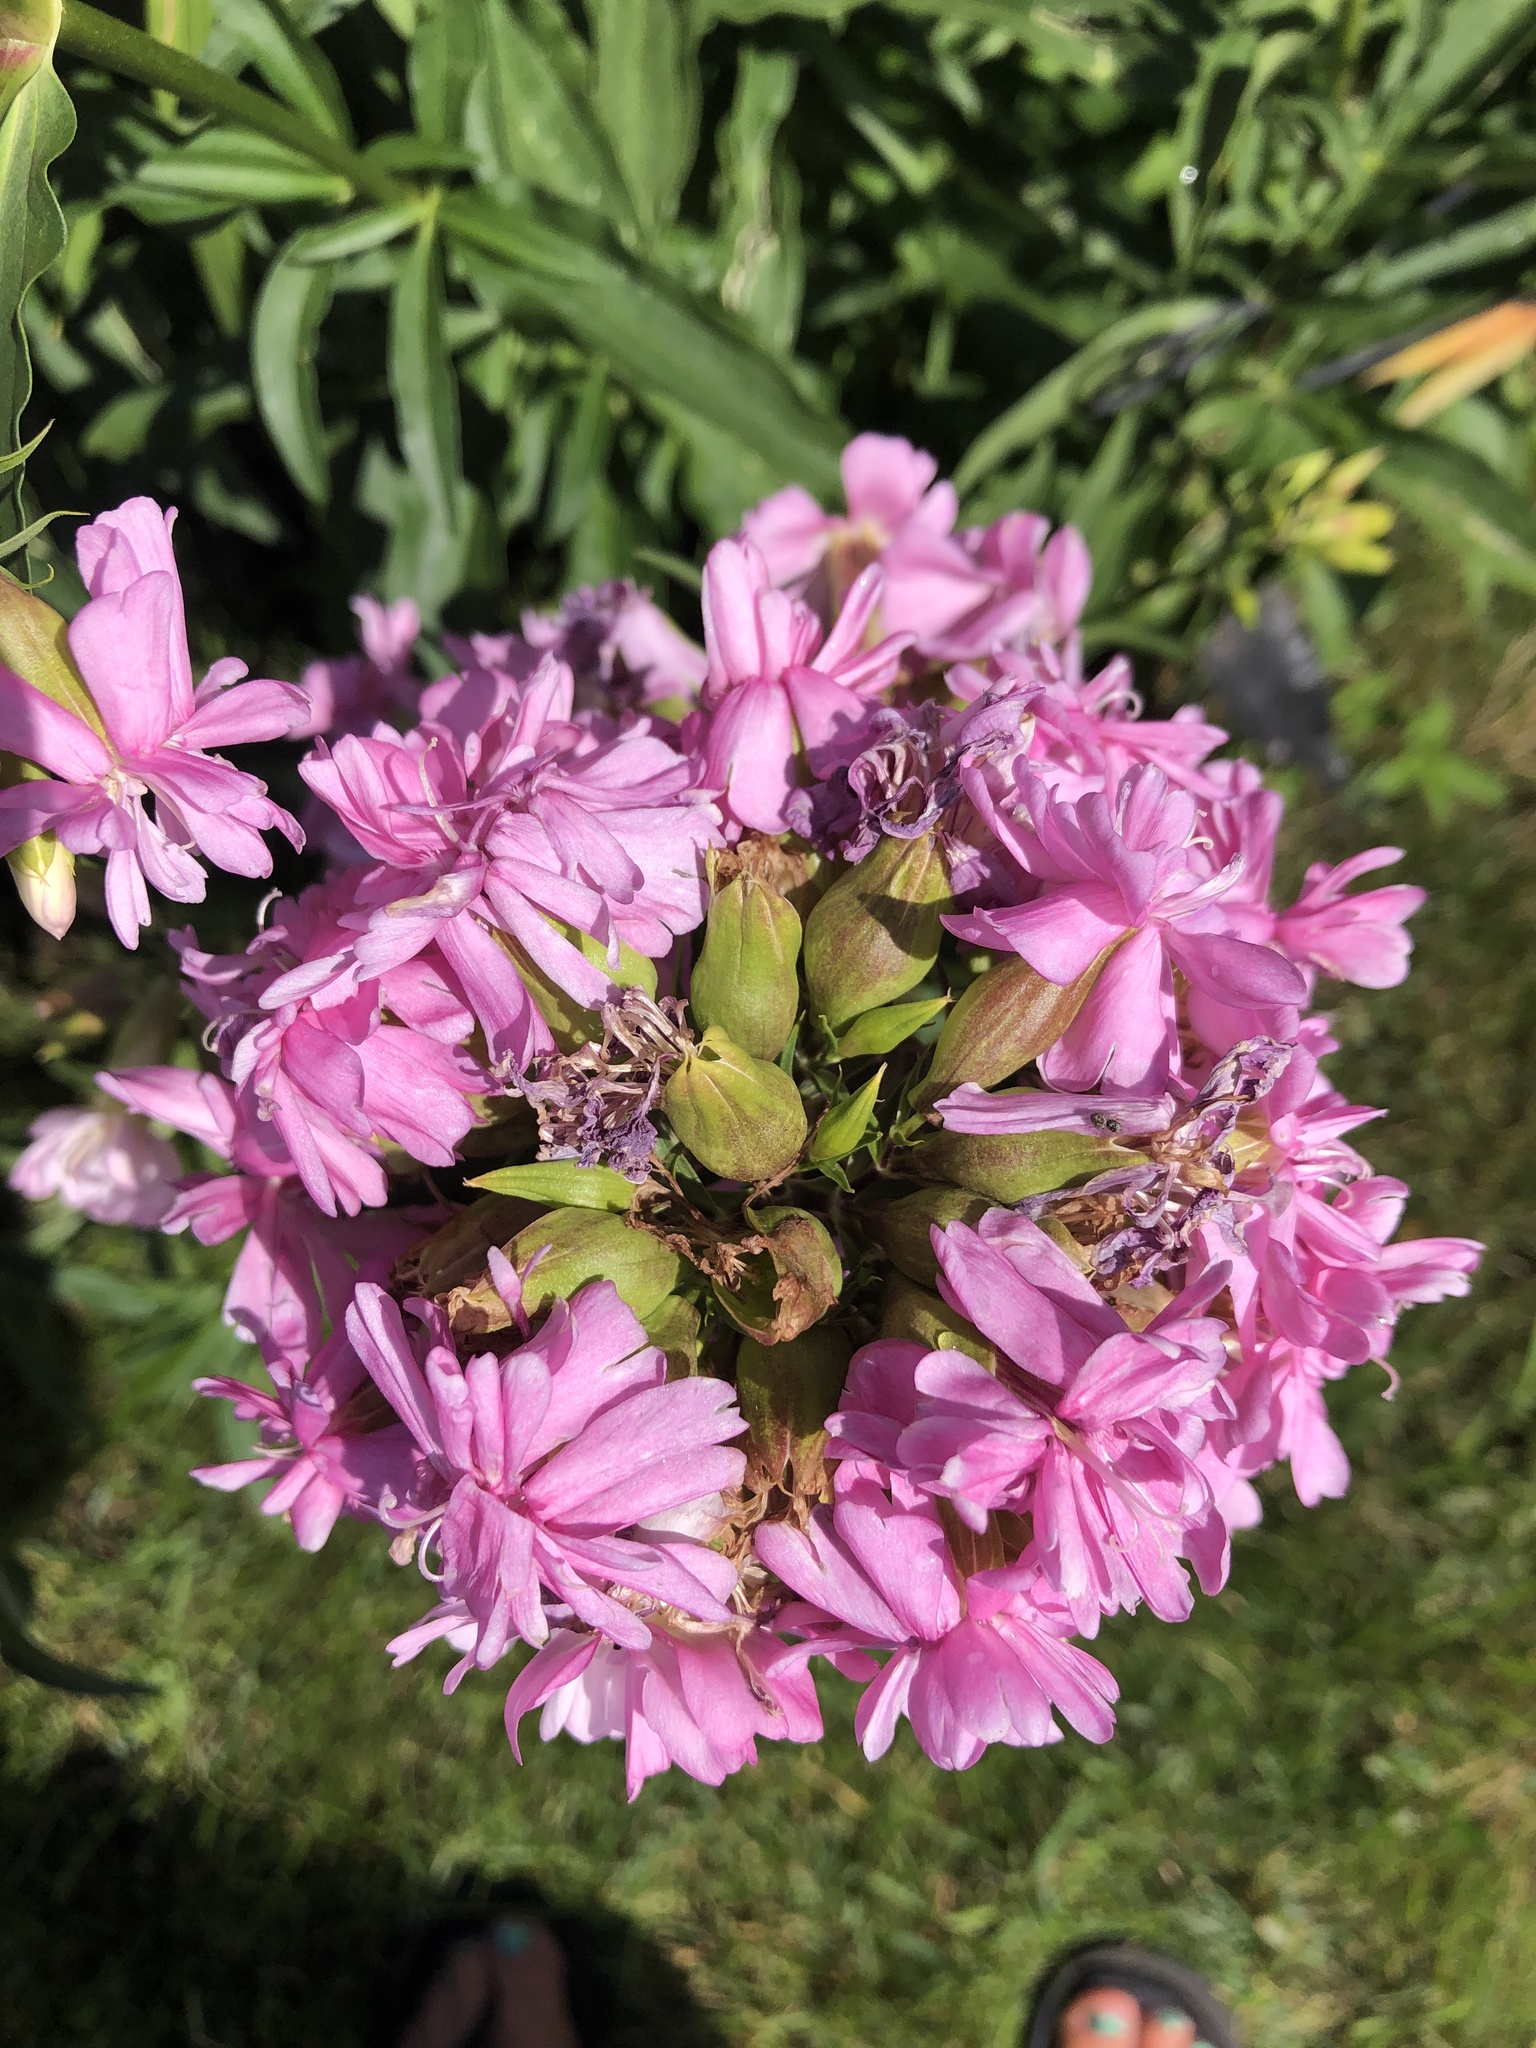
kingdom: Plantae
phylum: Tracheophyta
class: Magnoliopsida
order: Caryophyllales
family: Caryophyllaceae
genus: Saponaria
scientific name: Saponaria officinalis
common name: Soapwort
